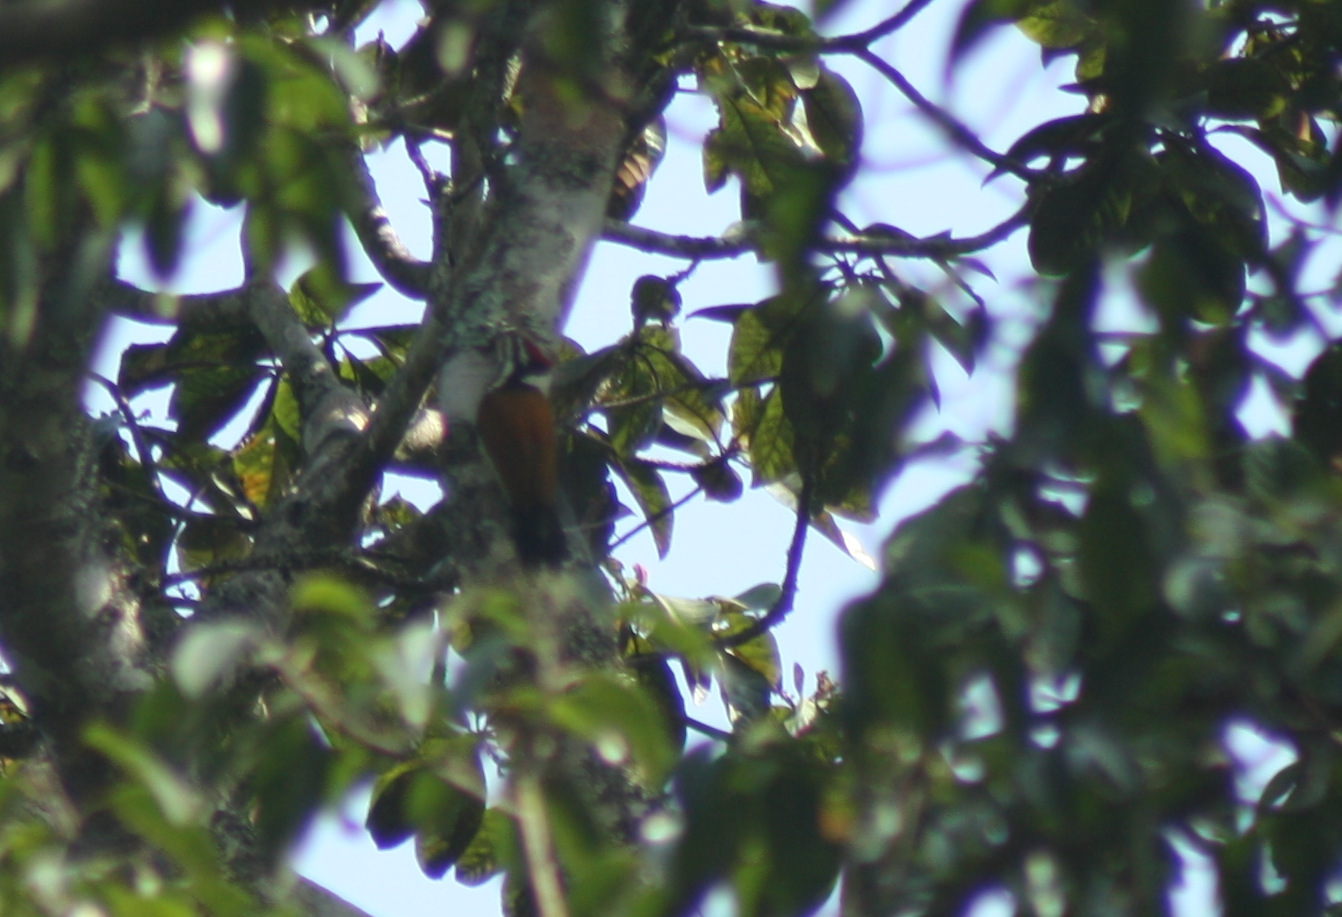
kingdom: Animalia
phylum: Chordata
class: Aves
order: Piciformes
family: Picidae
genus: Dinopium
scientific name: Dinopium javanense
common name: Common flameback
